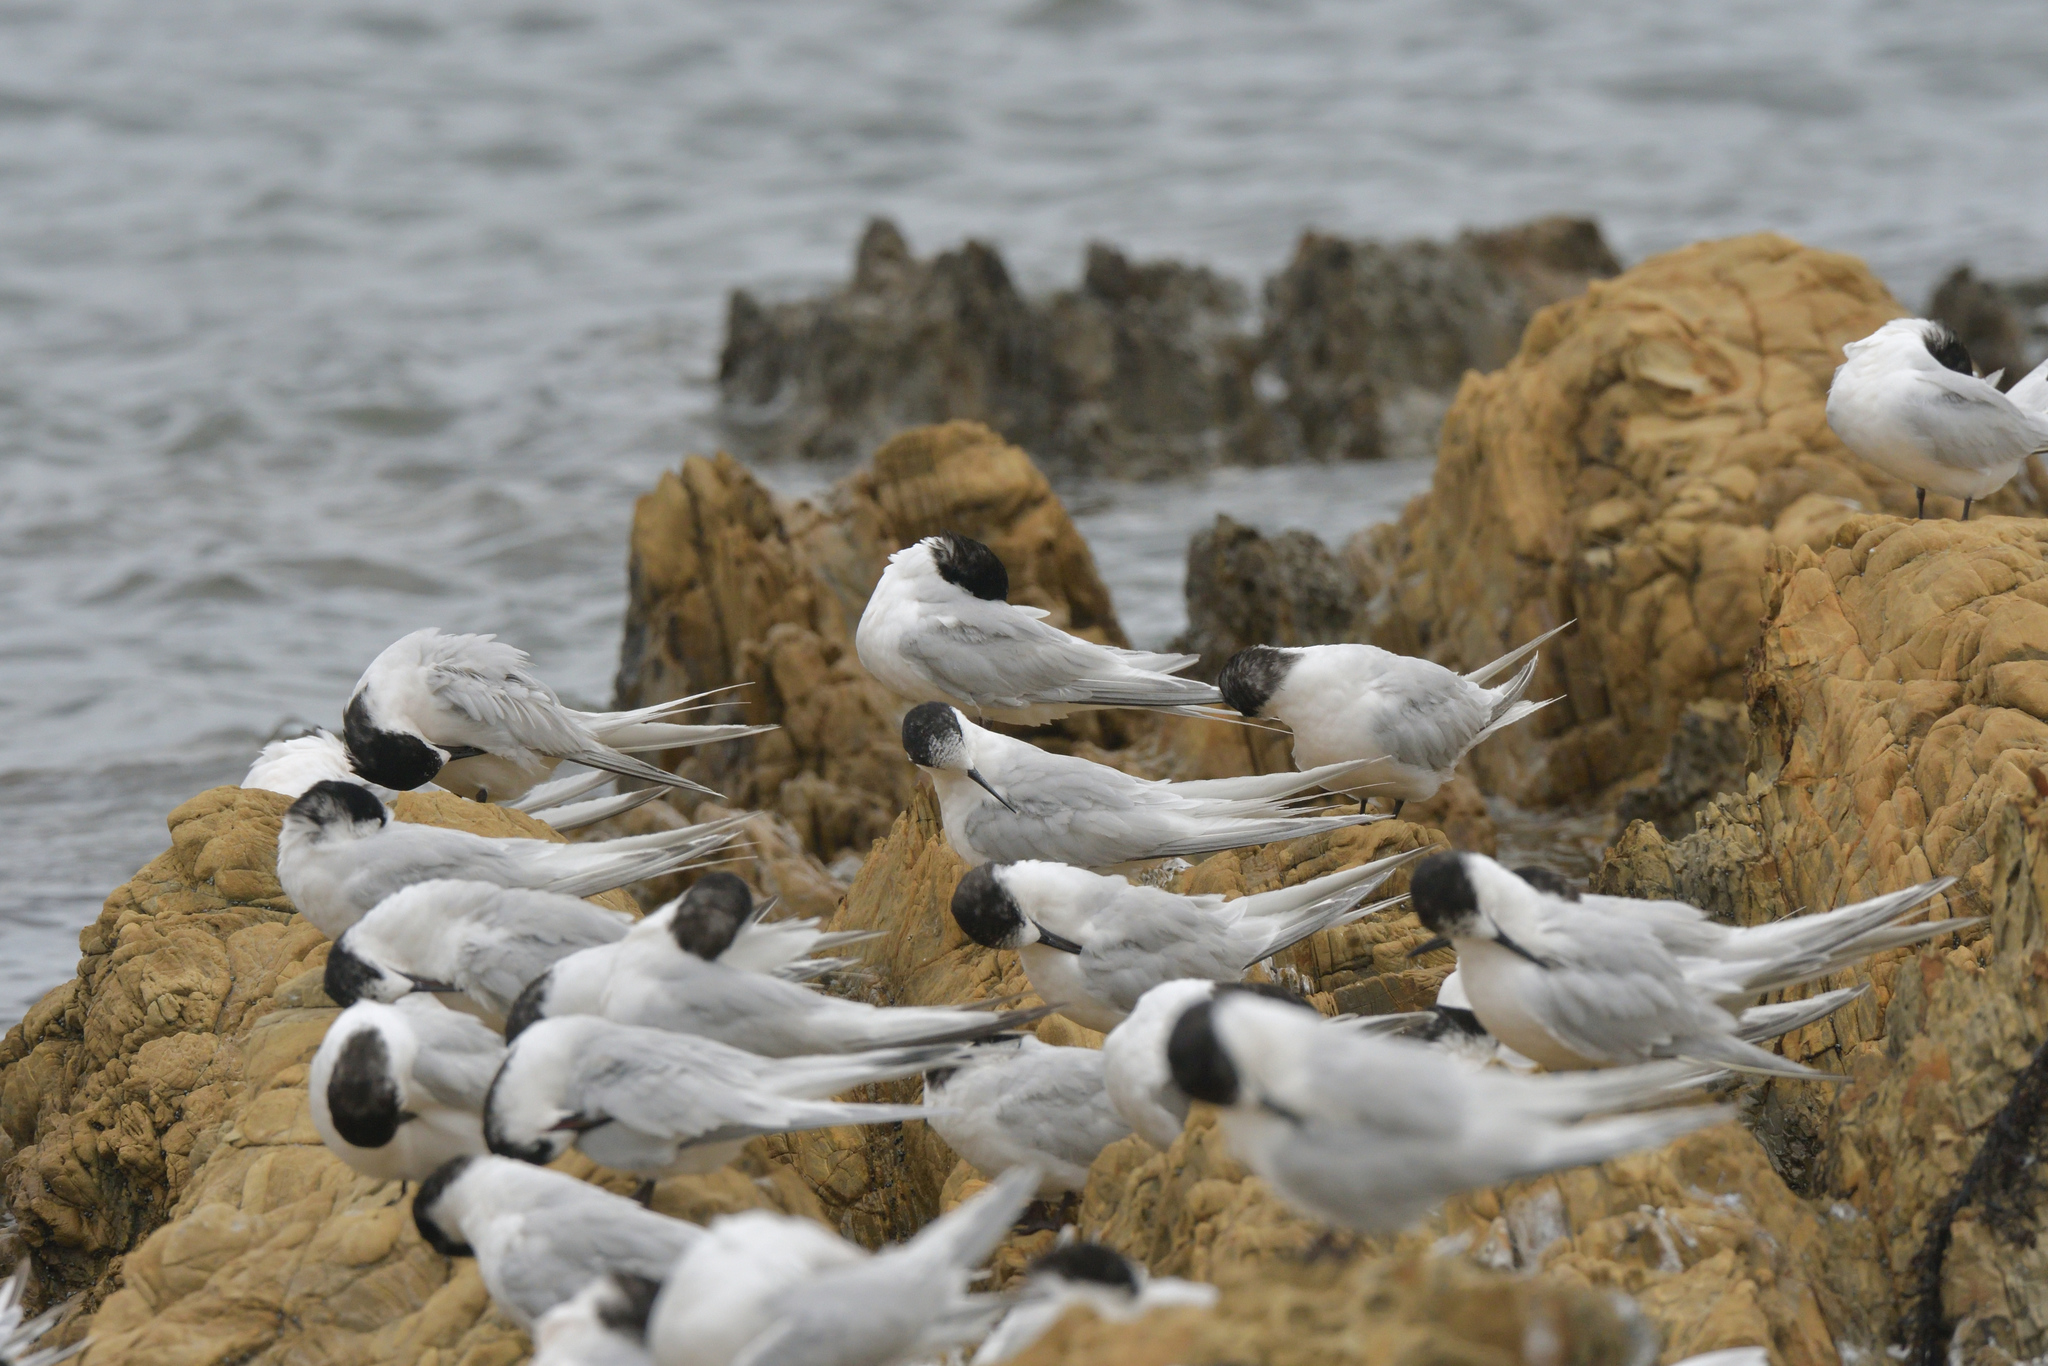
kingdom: Animalia
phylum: Chordata
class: Aves
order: Charadriiformes
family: Laridae
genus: Sterna
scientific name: Sterna striata
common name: White-fronted tern
